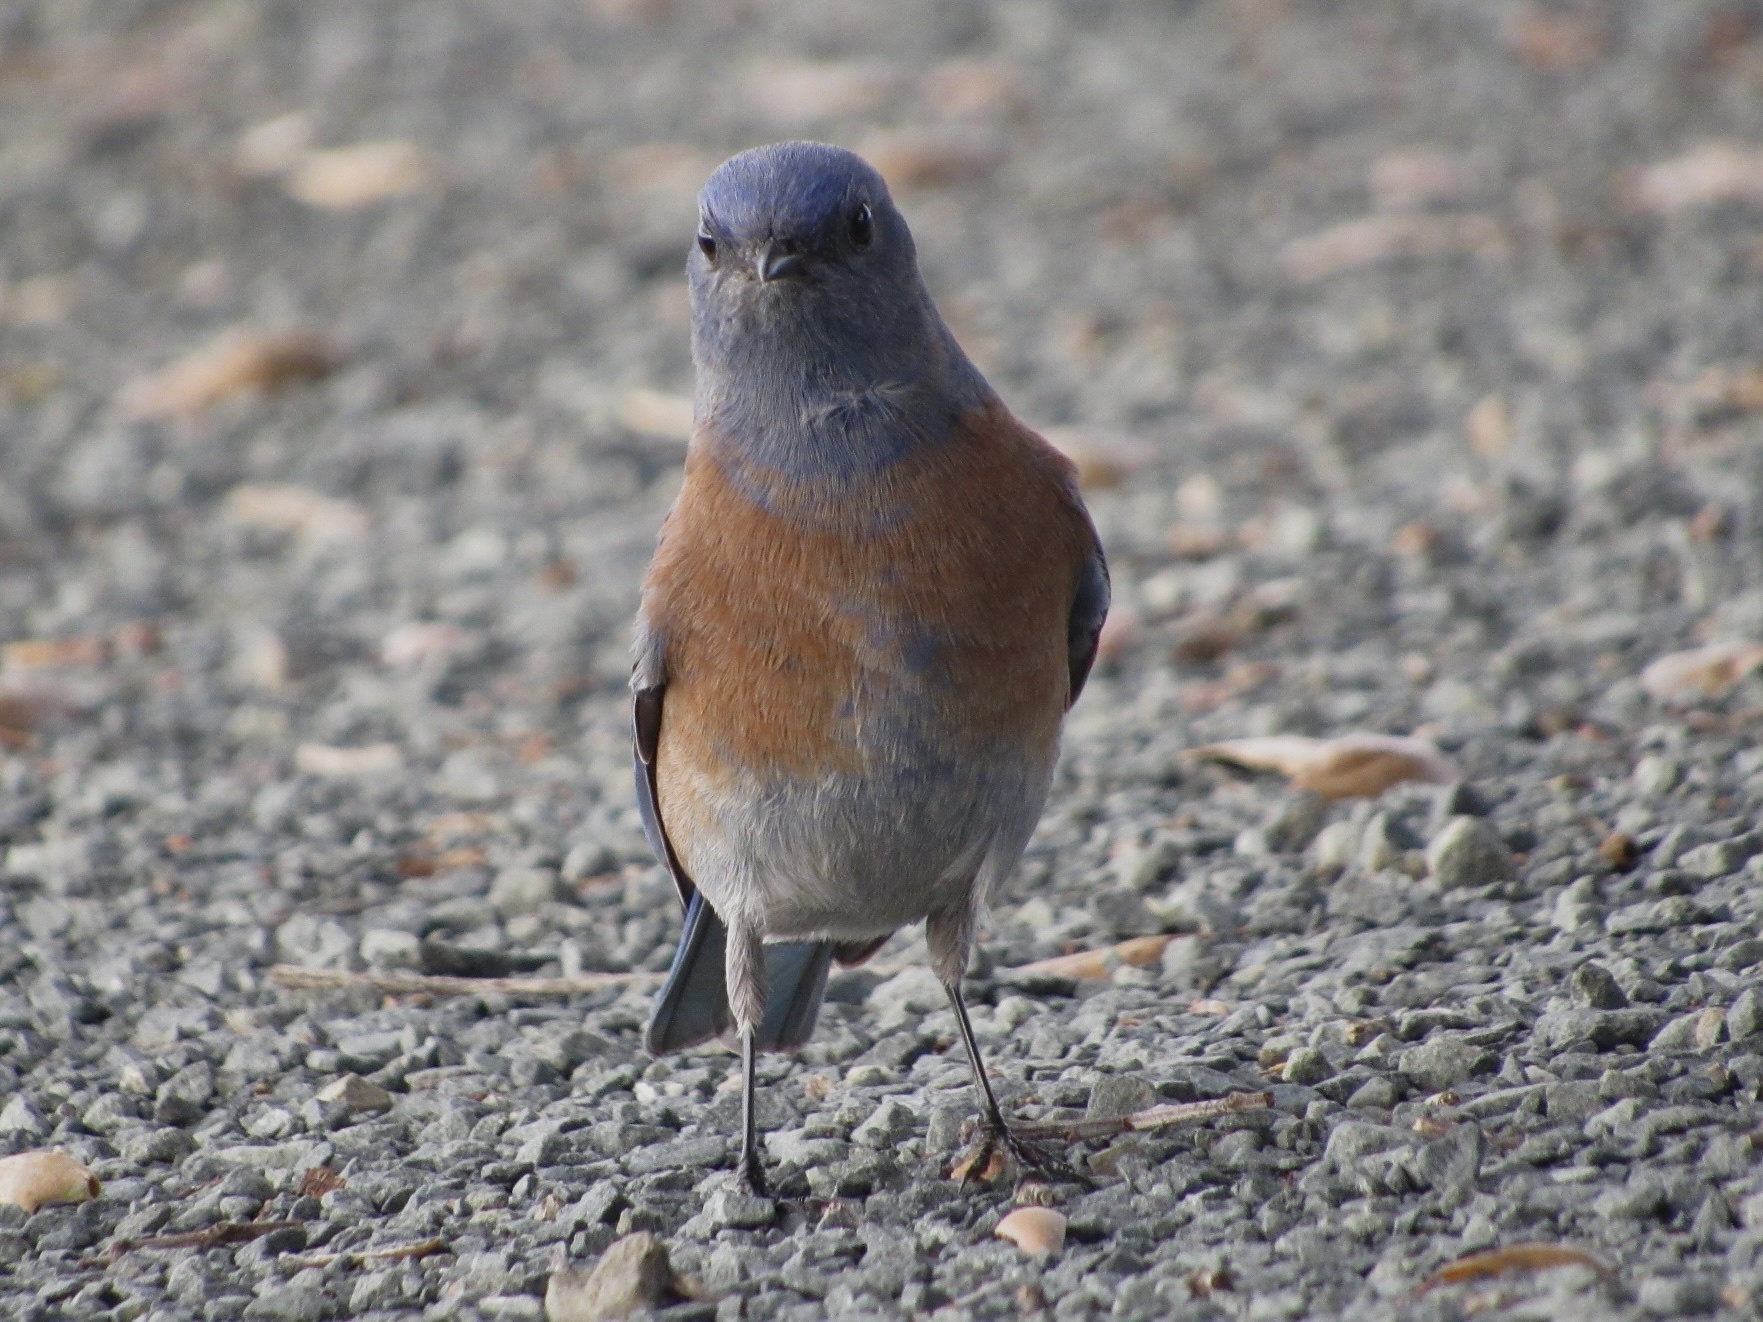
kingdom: Animalia
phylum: Chordata
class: Aves
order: Passeriformes
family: Turdidae
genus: Sialia
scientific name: Sialia mexicana
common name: Western bluebird
